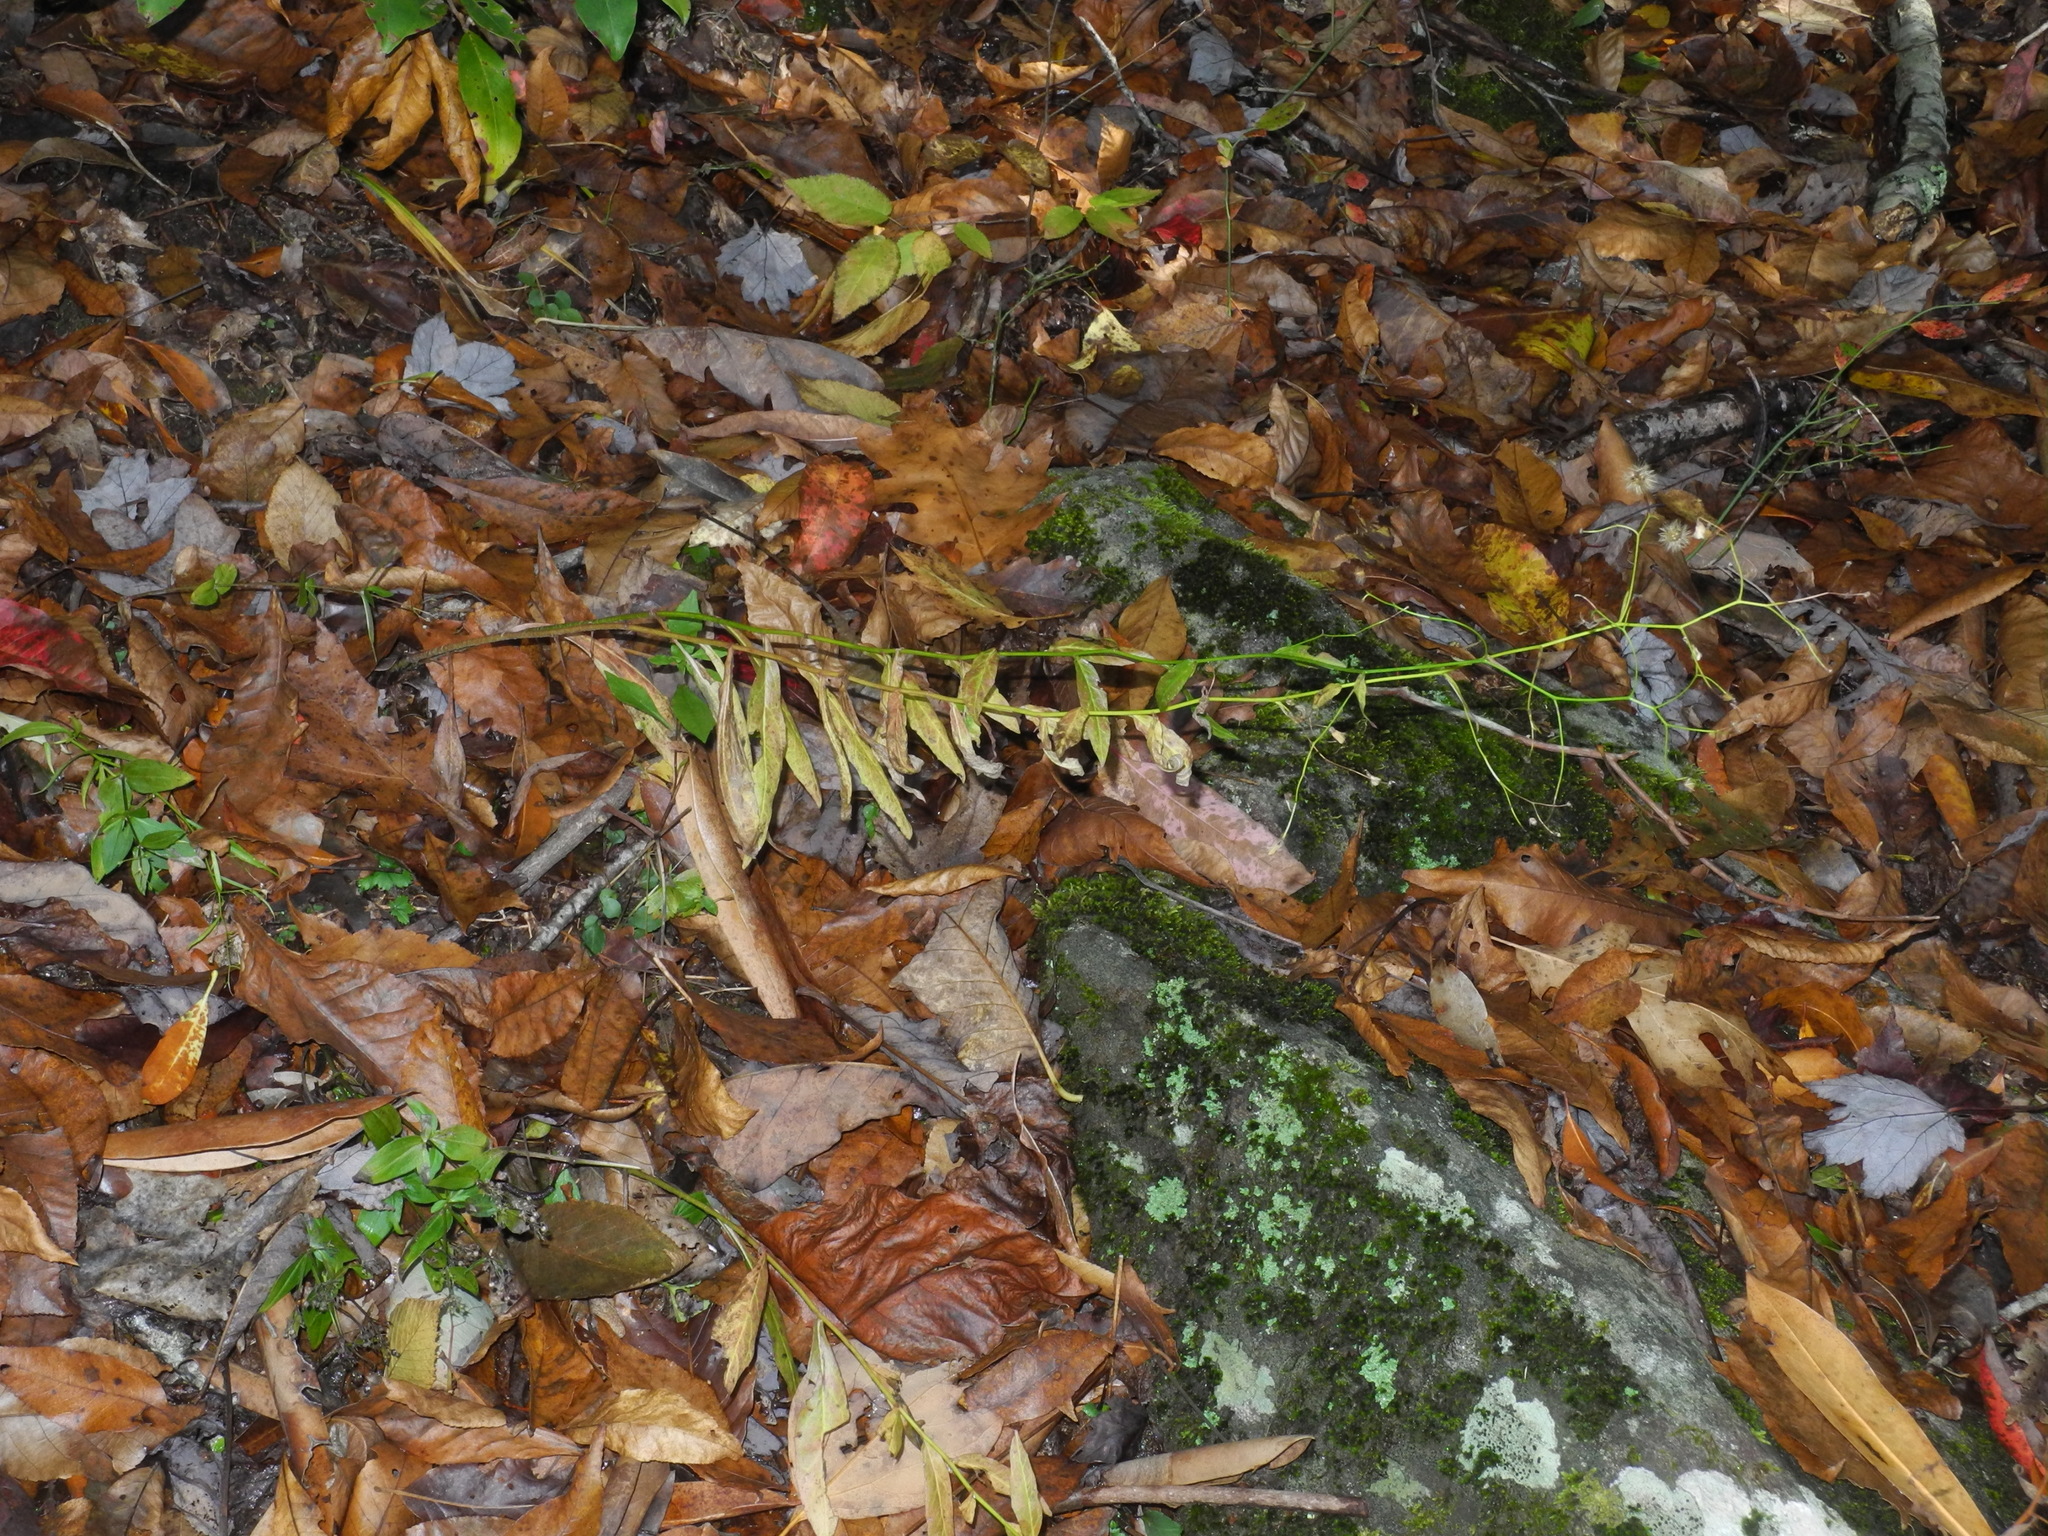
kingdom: Plantae
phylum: Tracheophyta
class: Magnoliopsida
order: Asterales
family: Asteraceae
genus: Hieracium
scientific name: Hieracium paniculatum
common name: Allegheny hawkweed
